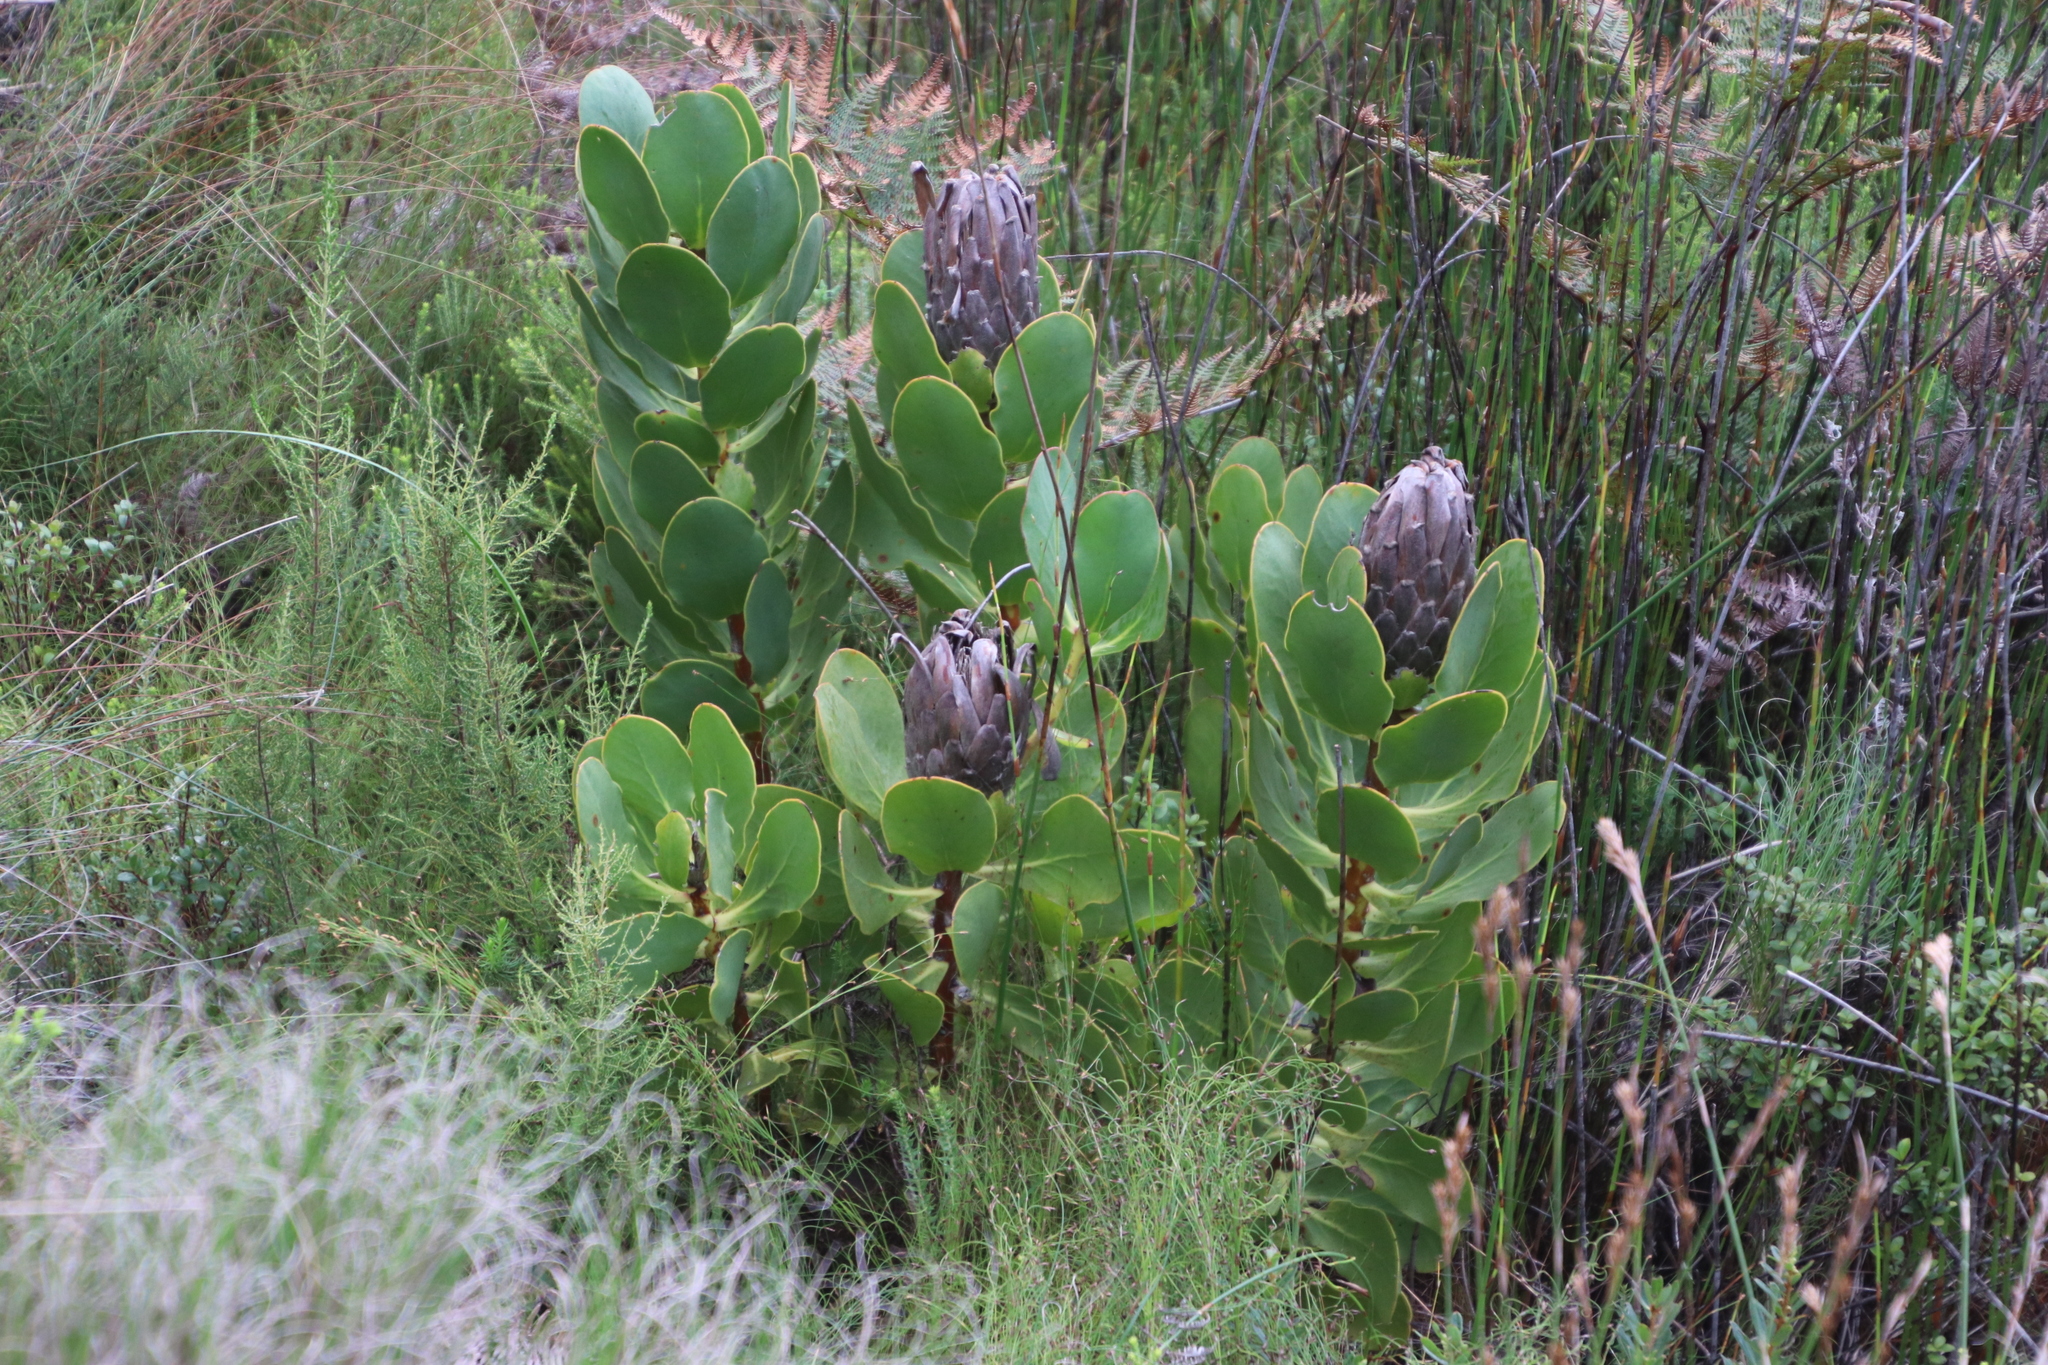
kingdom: Plantae
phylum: Tracheophyta
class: Magnoliopsida
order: Proteales
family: Proteaceae
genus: Protea
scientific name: Protea speciosa
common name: Brown-beard sugarbush
